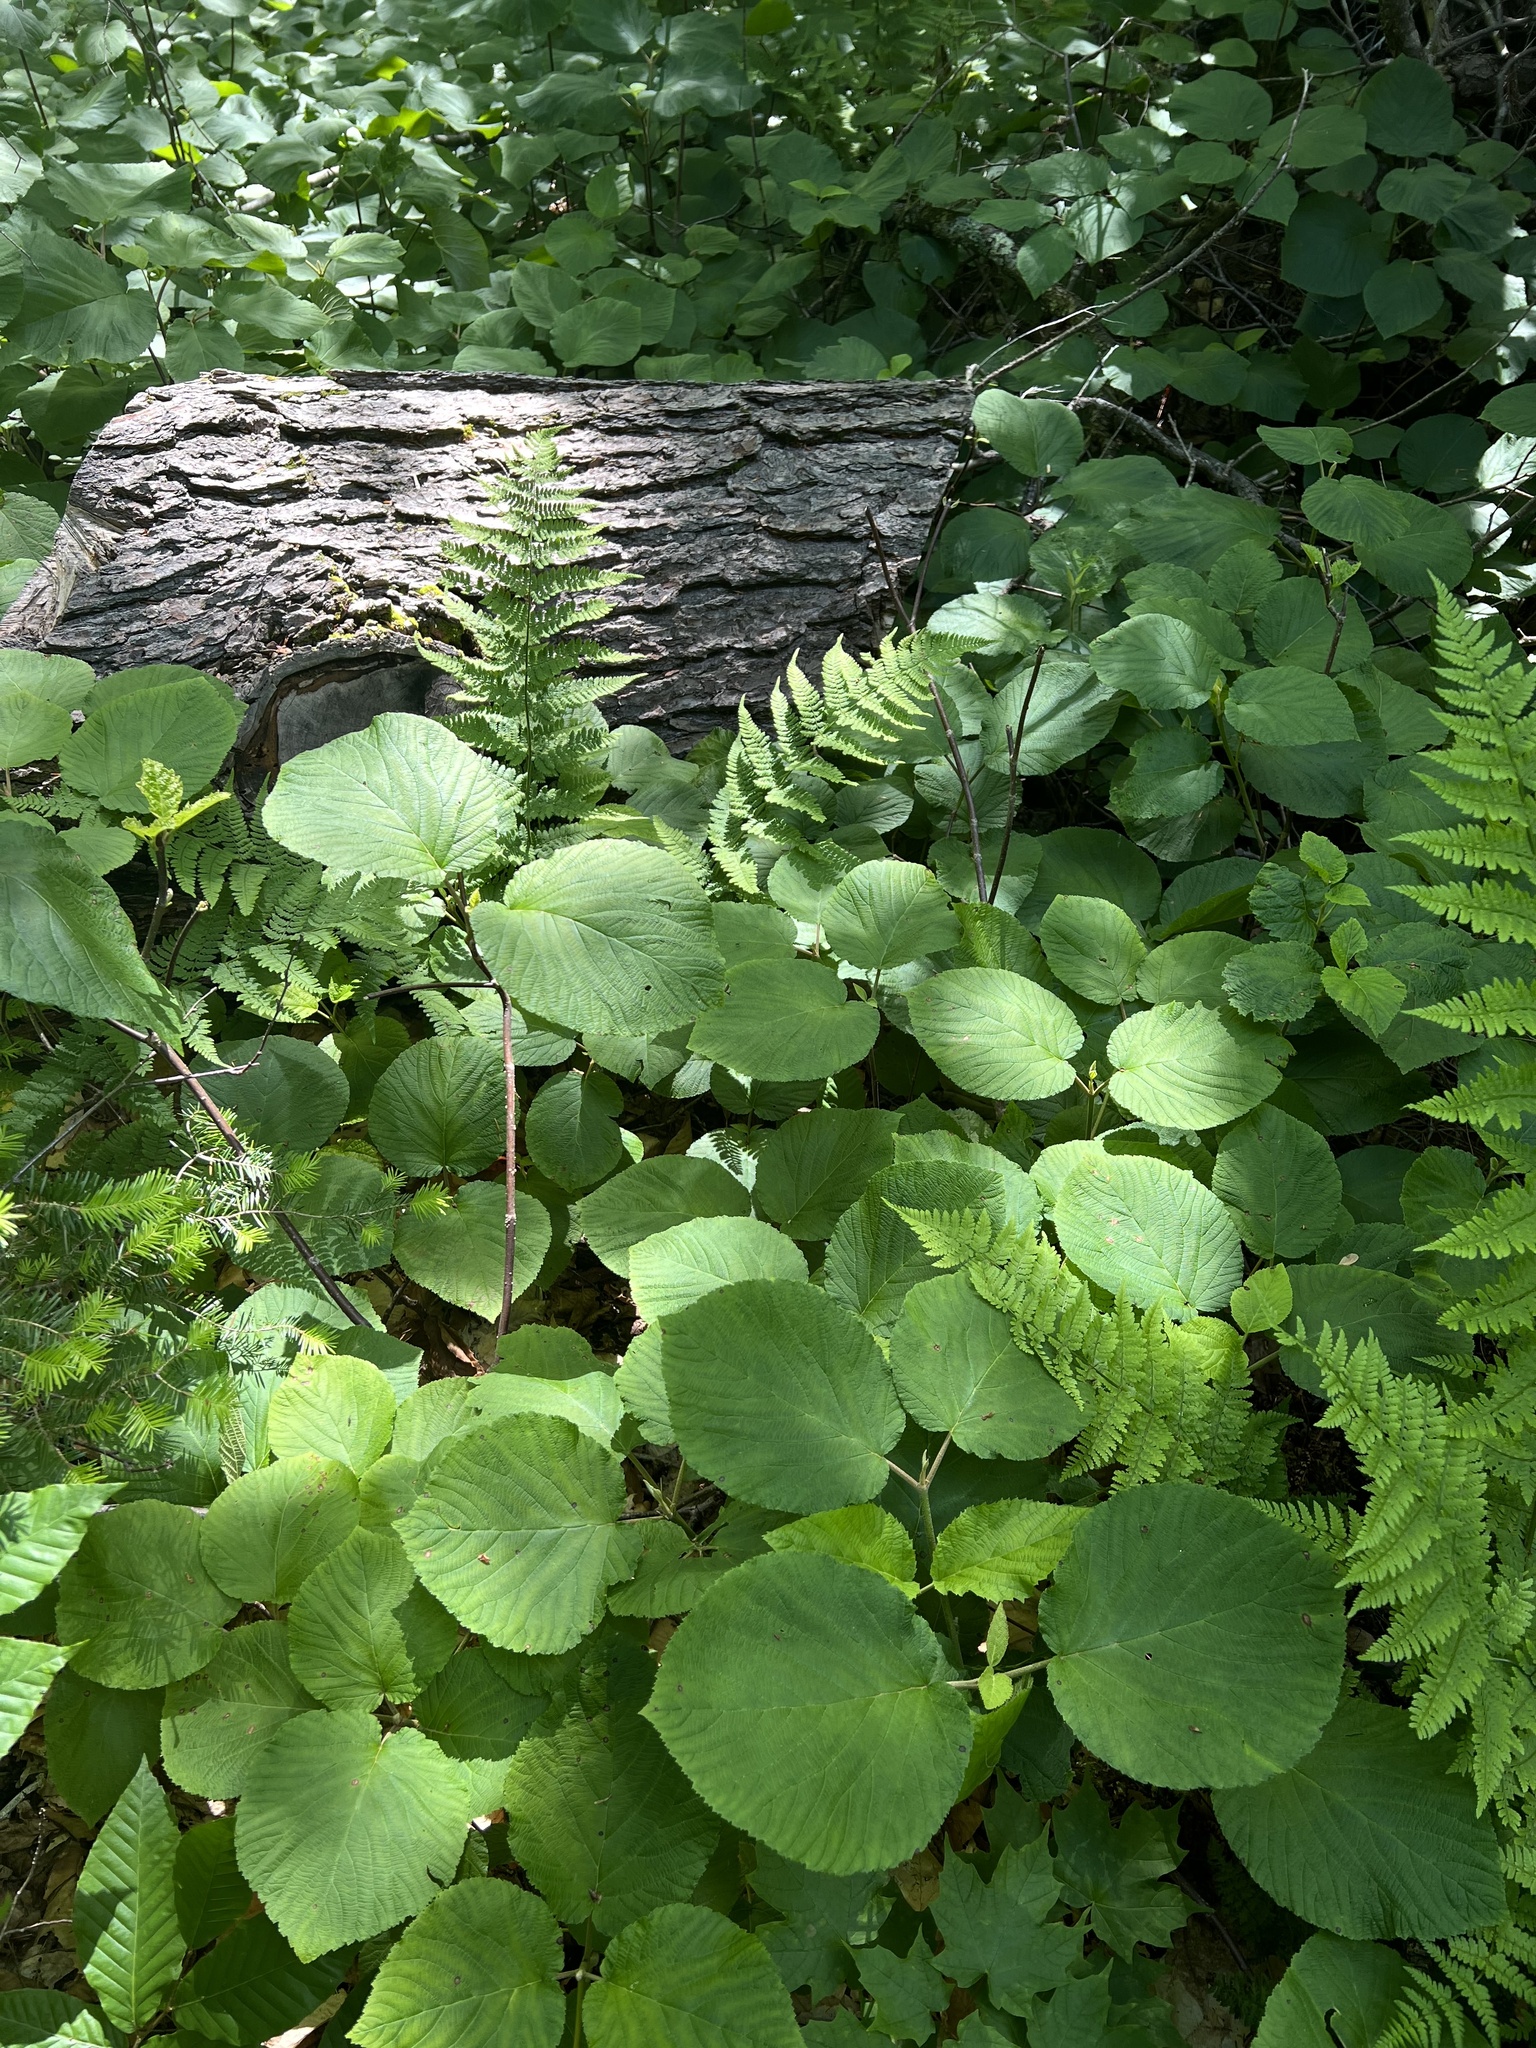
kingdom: Plantae
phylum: Tracheophyta
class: Magnoliopsida
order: Dipsacales
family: Viburnaceae
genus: Viburnum
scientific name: Viburnum lantanoides
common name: Hobblebush
